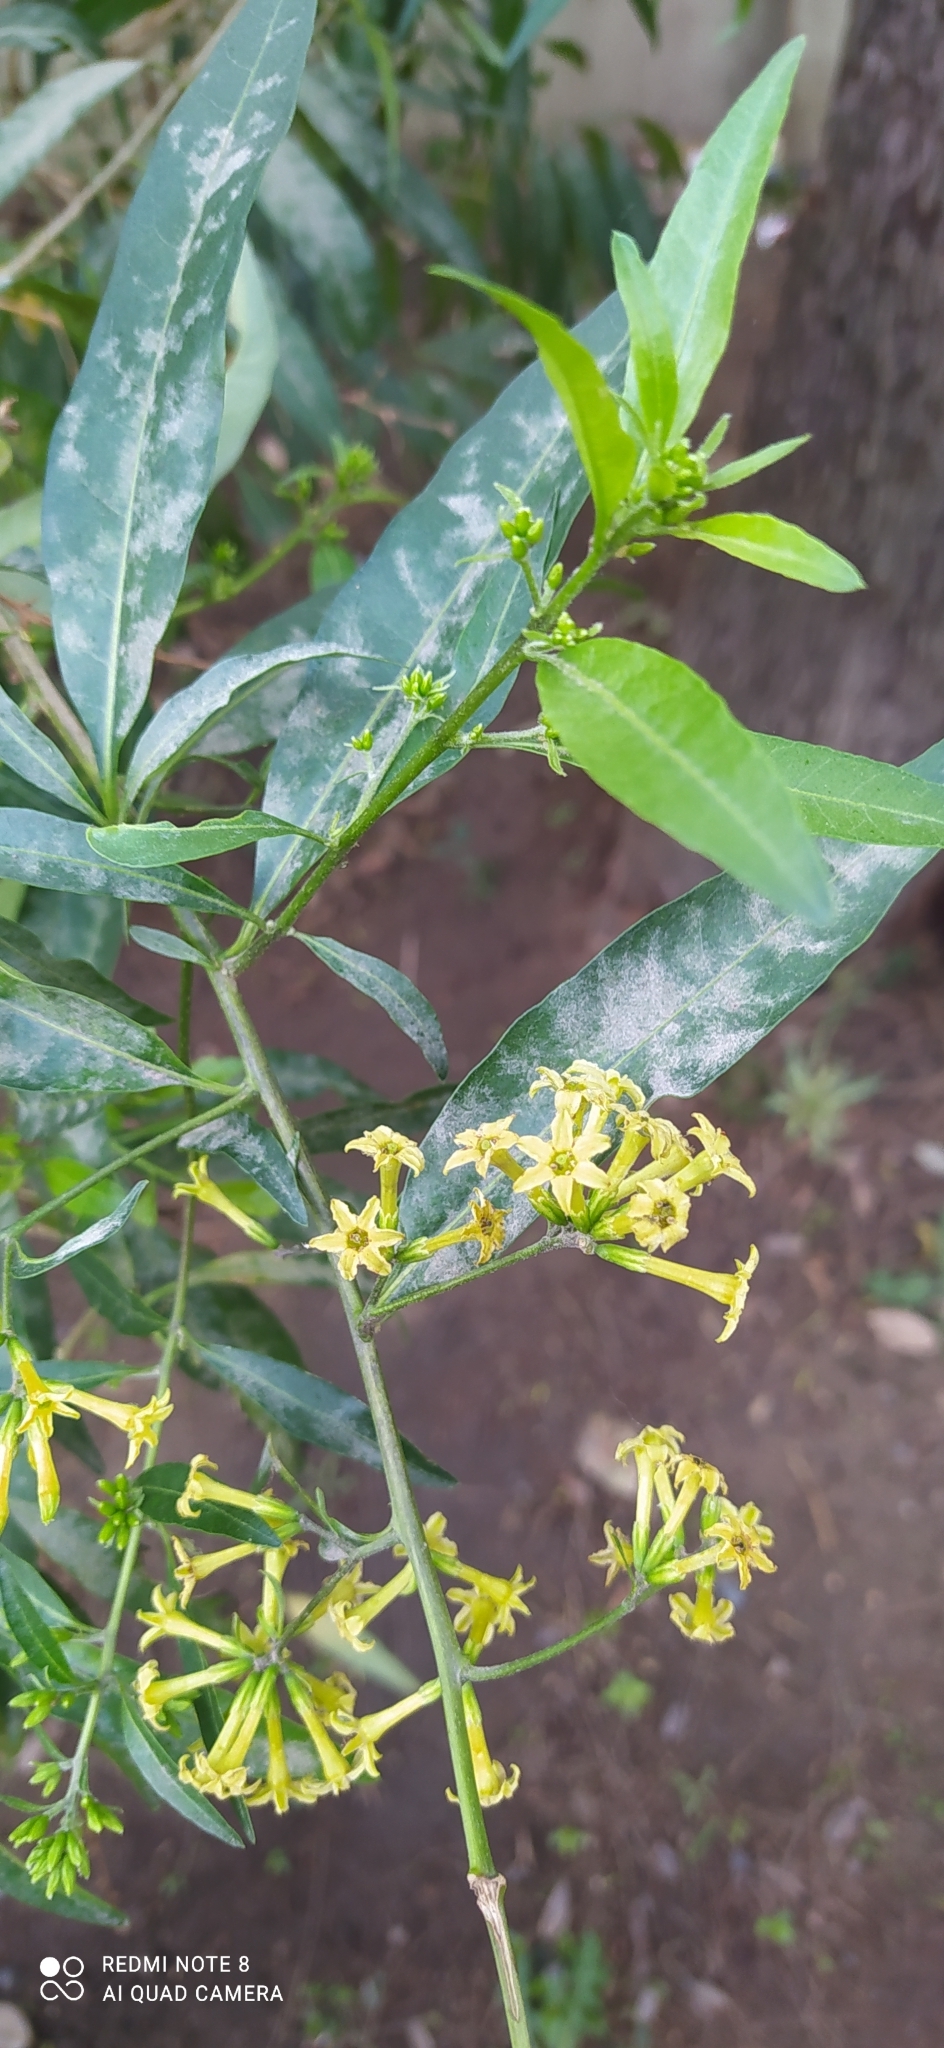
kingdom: Plantae
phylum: Tracheophyta
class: Magnoliopsida
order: Solanales
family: Solanaceae
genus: Cestrum
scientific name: Cestrum parqui
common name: Chilean cestrum
